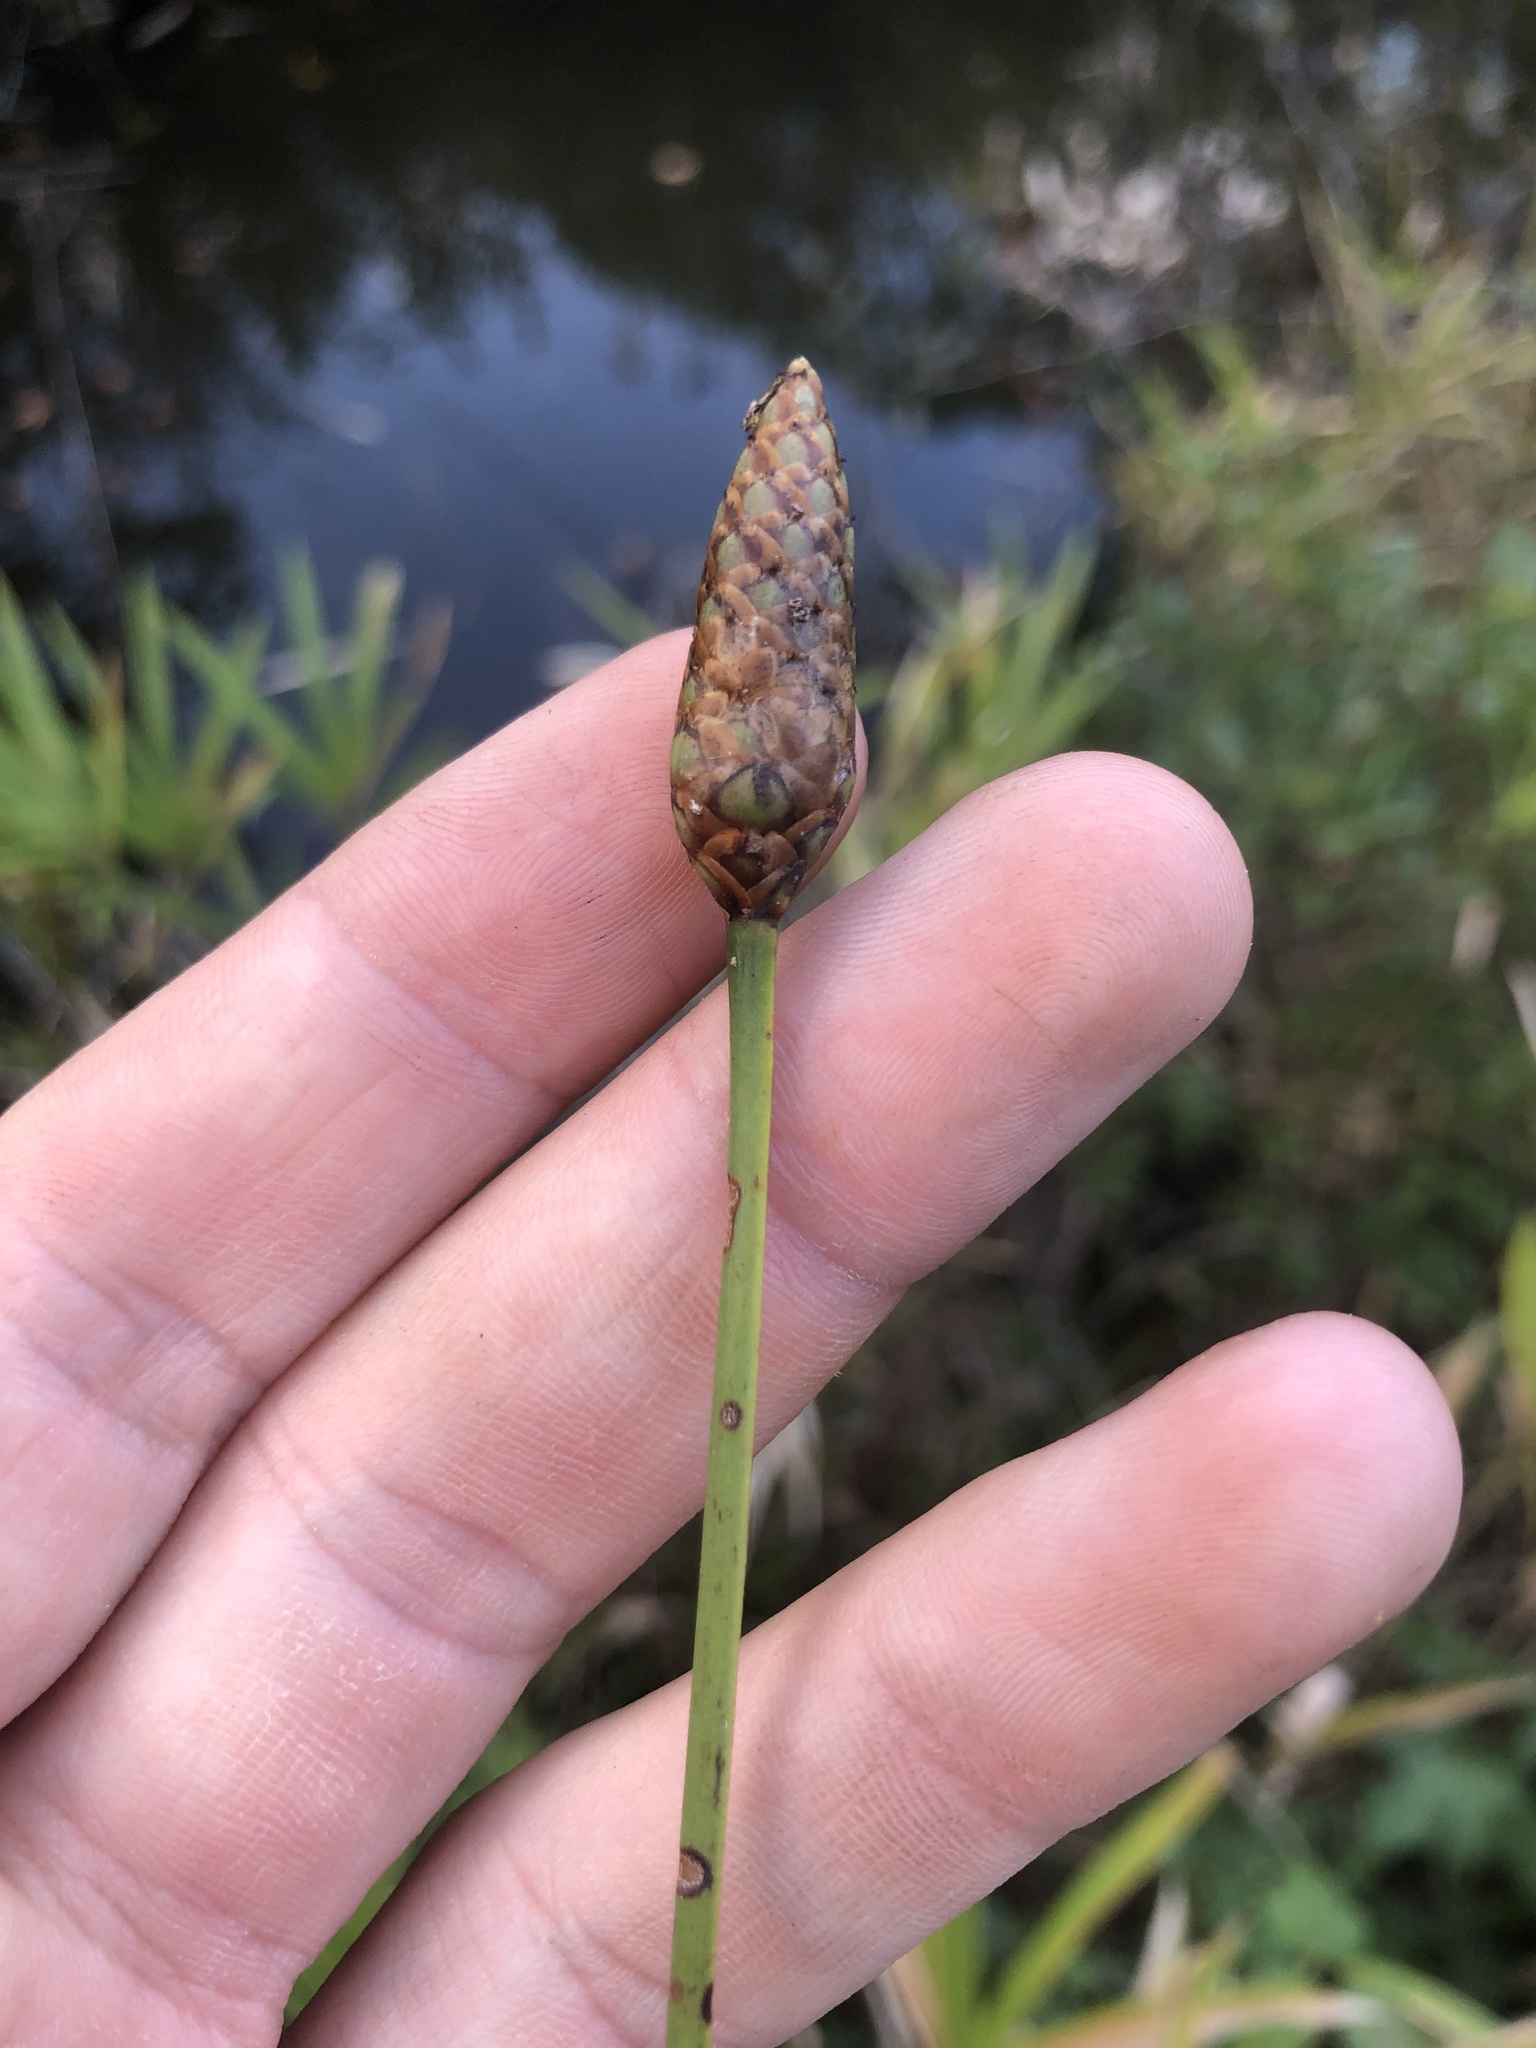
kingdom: Plantae
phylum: Tracheophyta
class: Liliopsida
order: Poales
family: Xyridaceae
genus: Xyris
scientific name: Xyris ambigua
